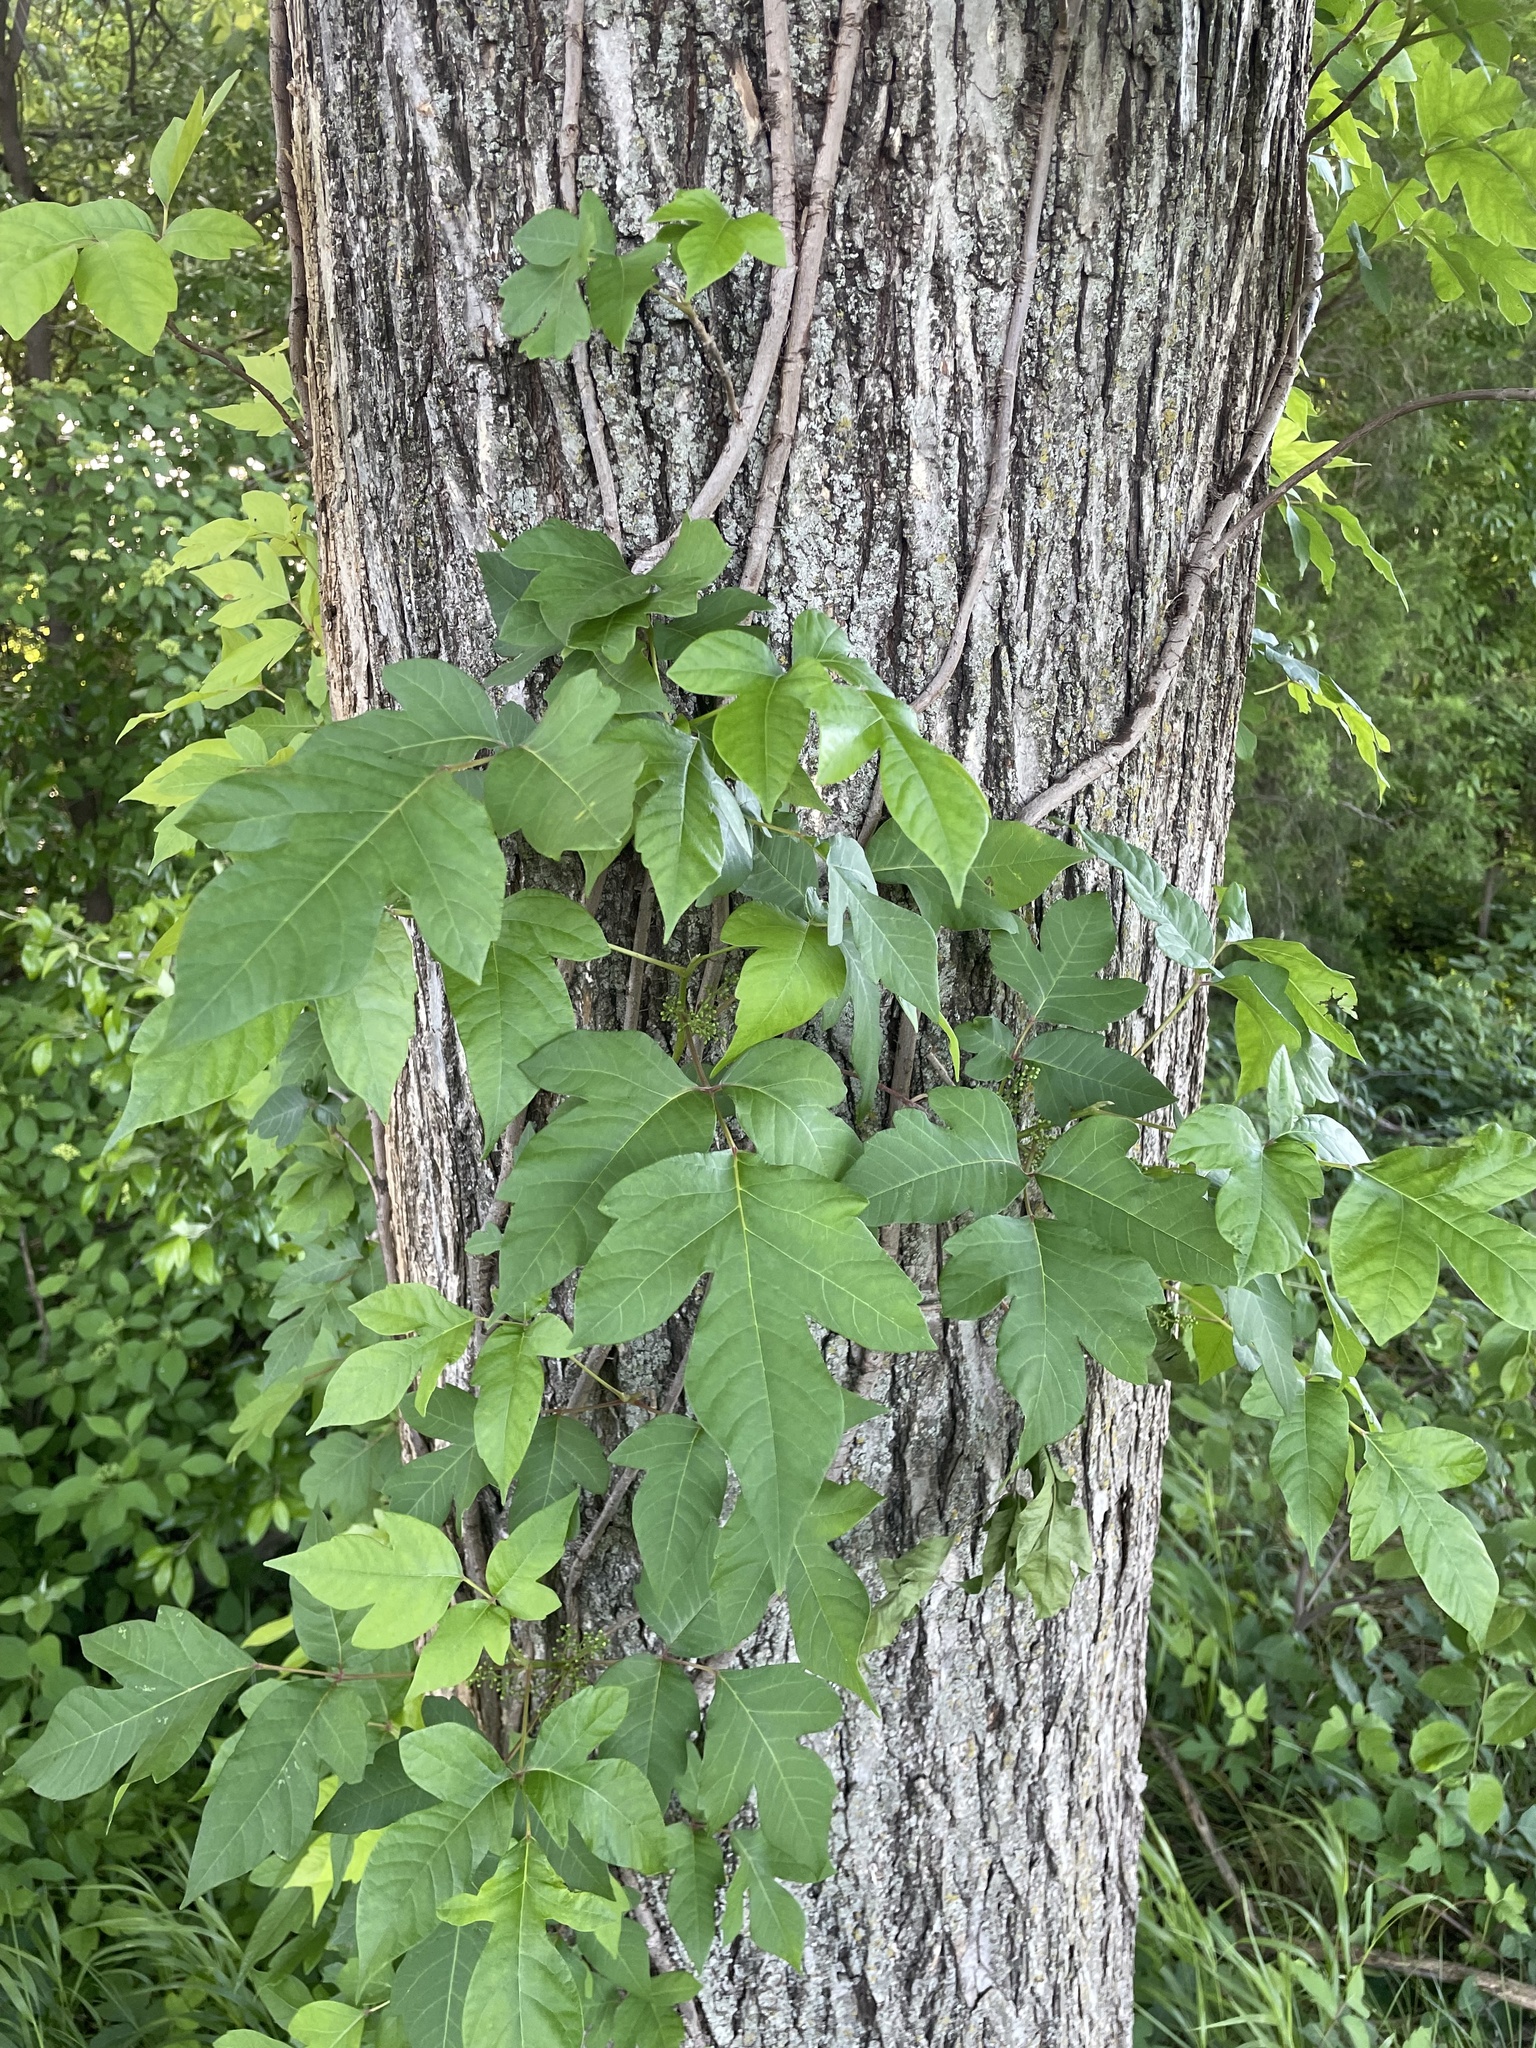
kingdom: Plantae
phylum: Tracheophyta
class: Magnoliopsida
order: Sapindales
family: Anacardiaceae
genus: Toxicodendron
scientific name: Toxicodendron radicans
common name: Poison ivy
